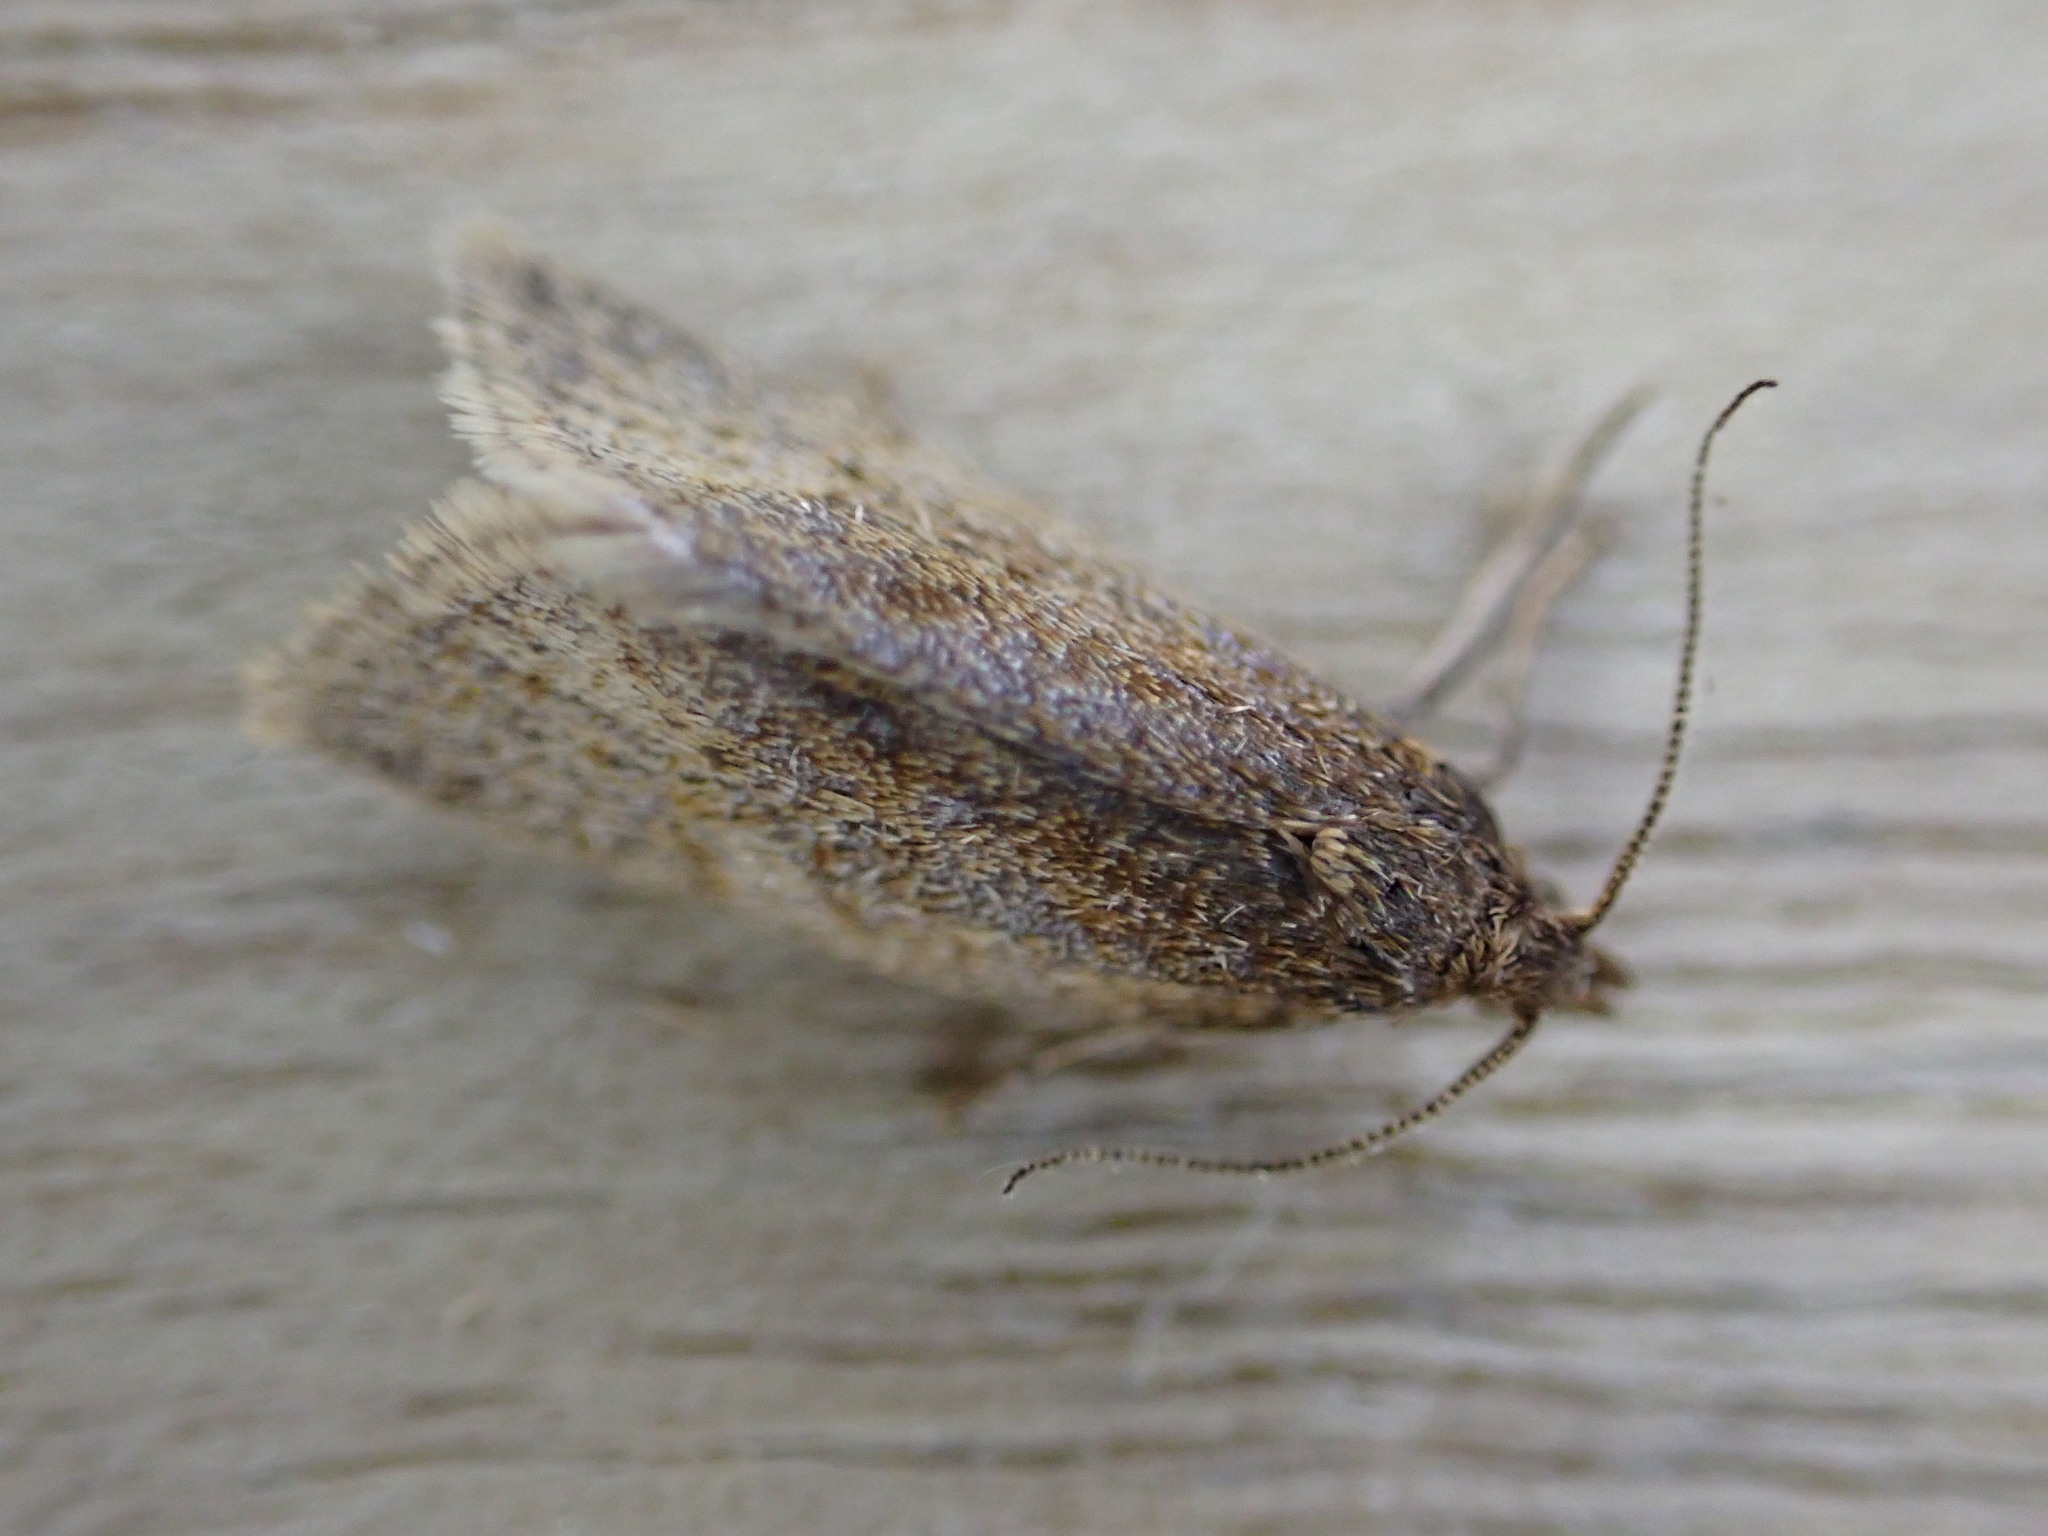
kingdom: Animalia
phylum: Arthropoda
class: Insecta
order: Lepidoptera
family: Tortricidae
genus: Clepsis
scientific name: Clepsis senecionana
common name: Obscure tortrix
